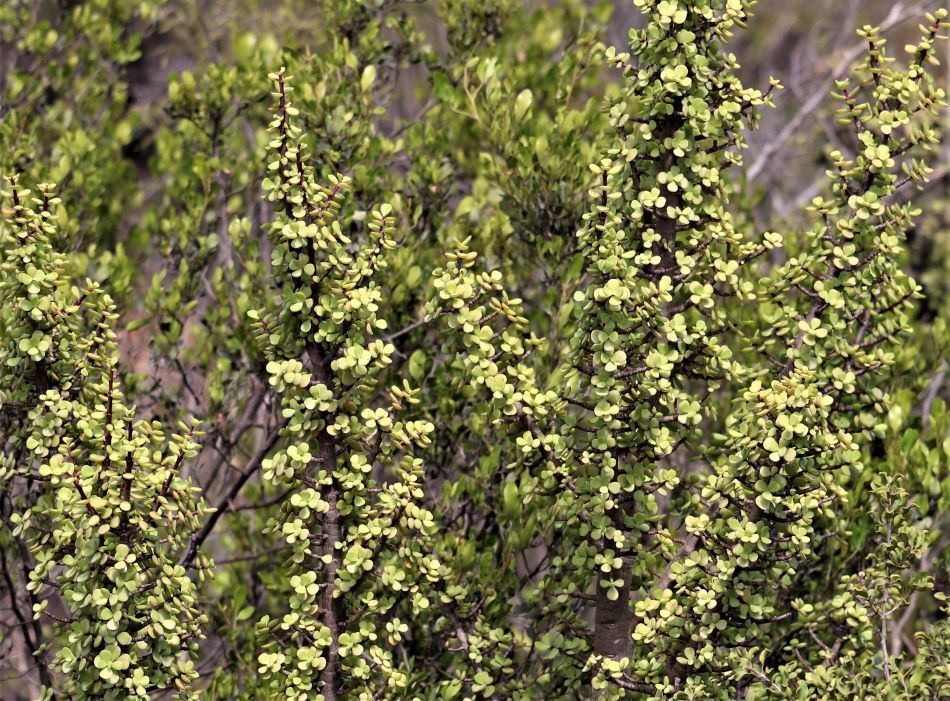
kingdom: Plantae
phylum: Tracheophyta
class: Magnoliopsida
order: Caryophyllales
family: Didiereaceae
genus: Portulacaria
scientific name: Portulacaria afra
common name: Elephant-bush
